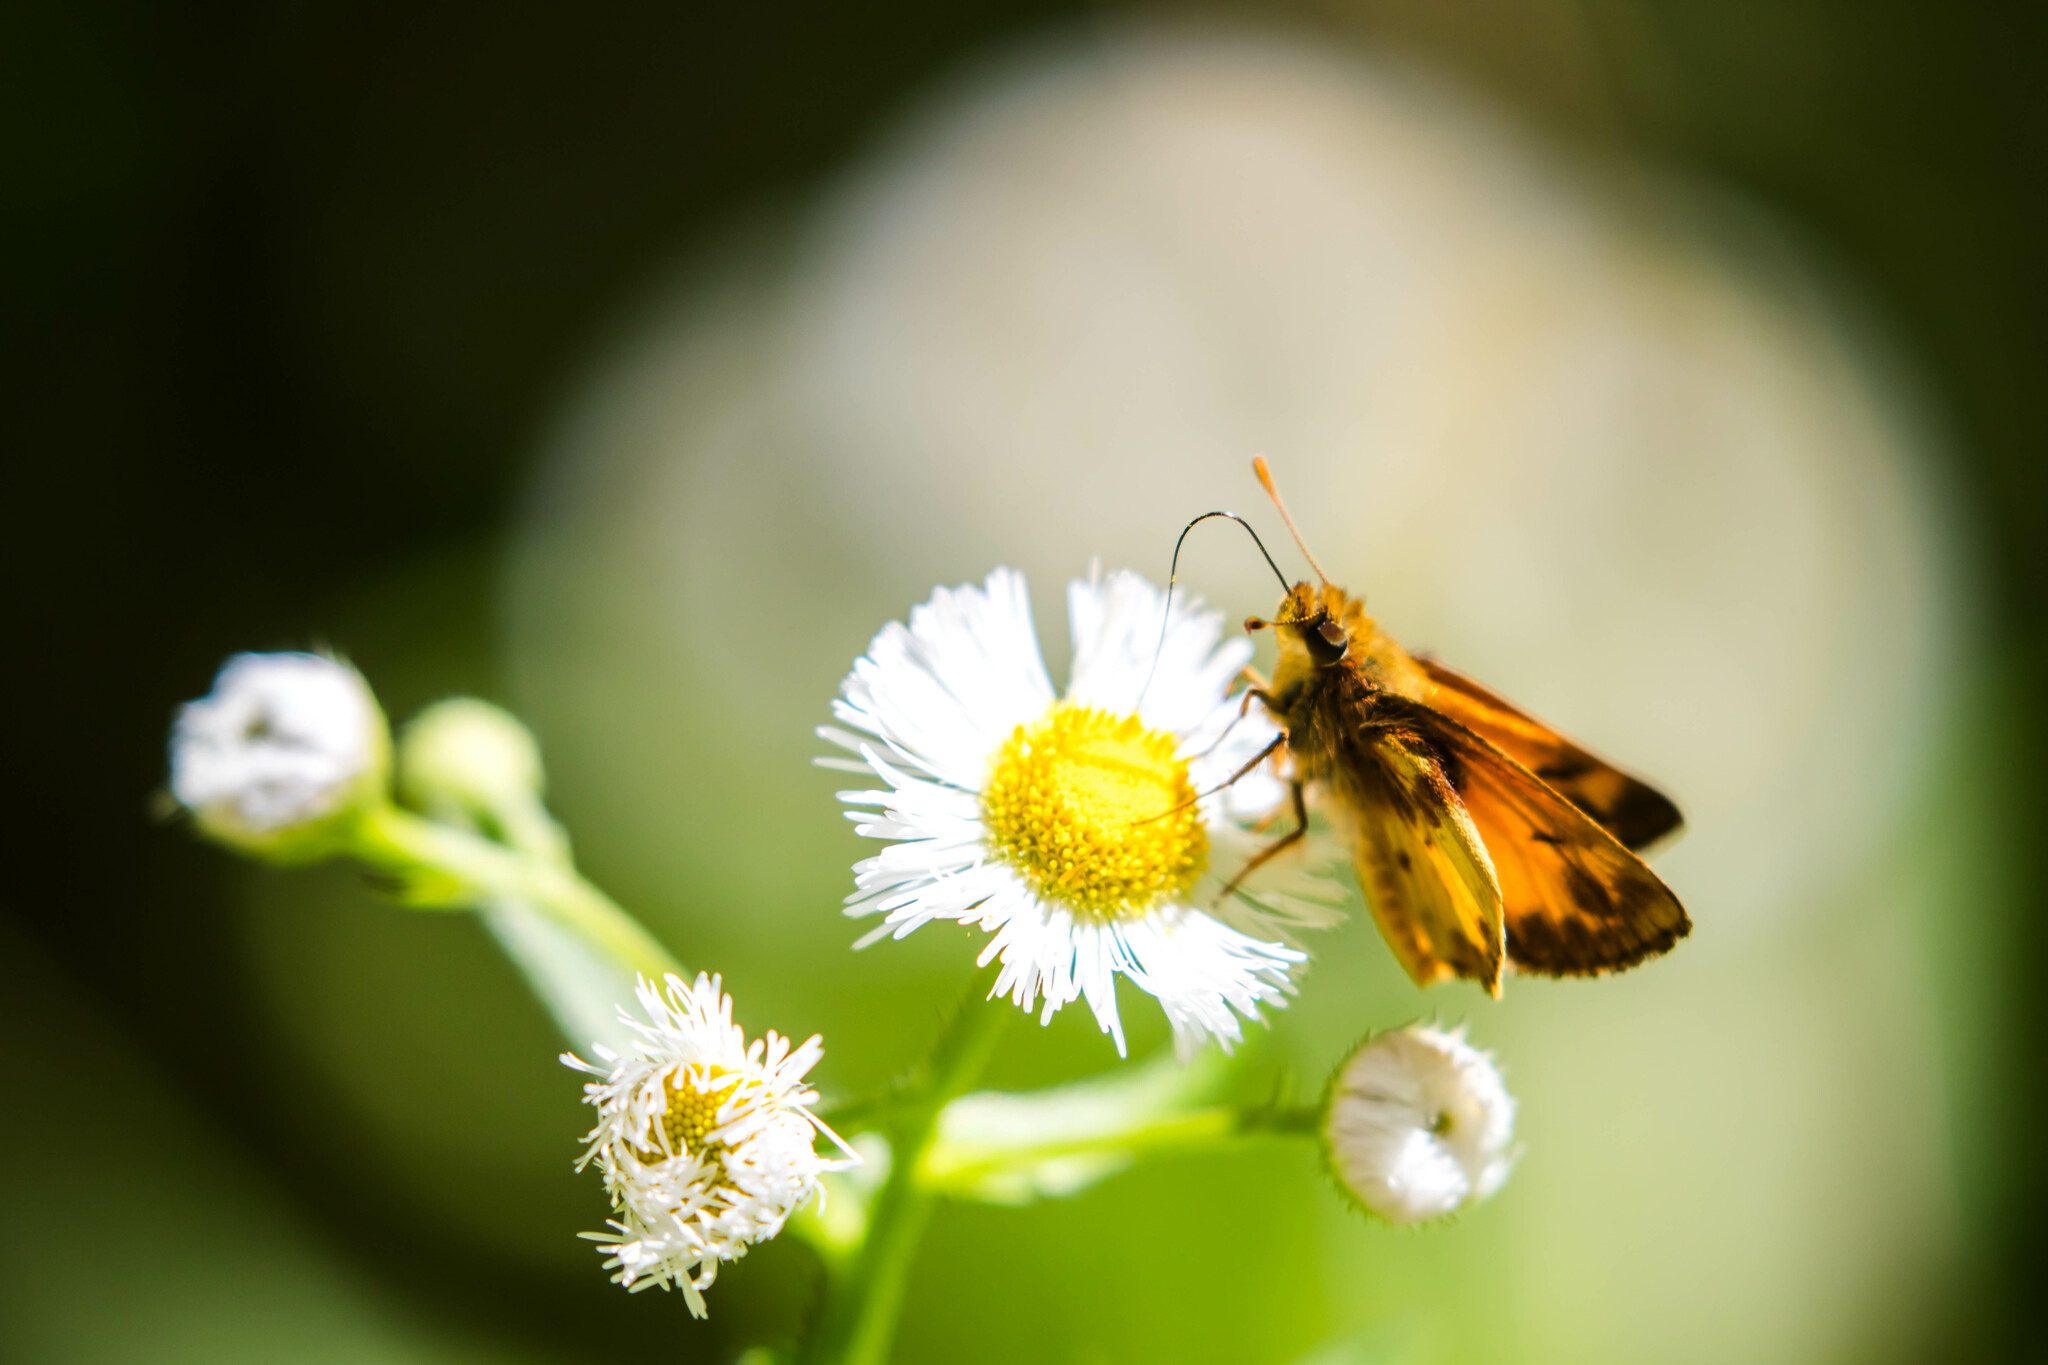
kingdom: Animalia
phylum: Arthropoda
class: Insecta
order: Lepidoptera
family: Hesperiidae
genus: Lon
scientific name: Lon zabulon
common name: Zabulon skipper
